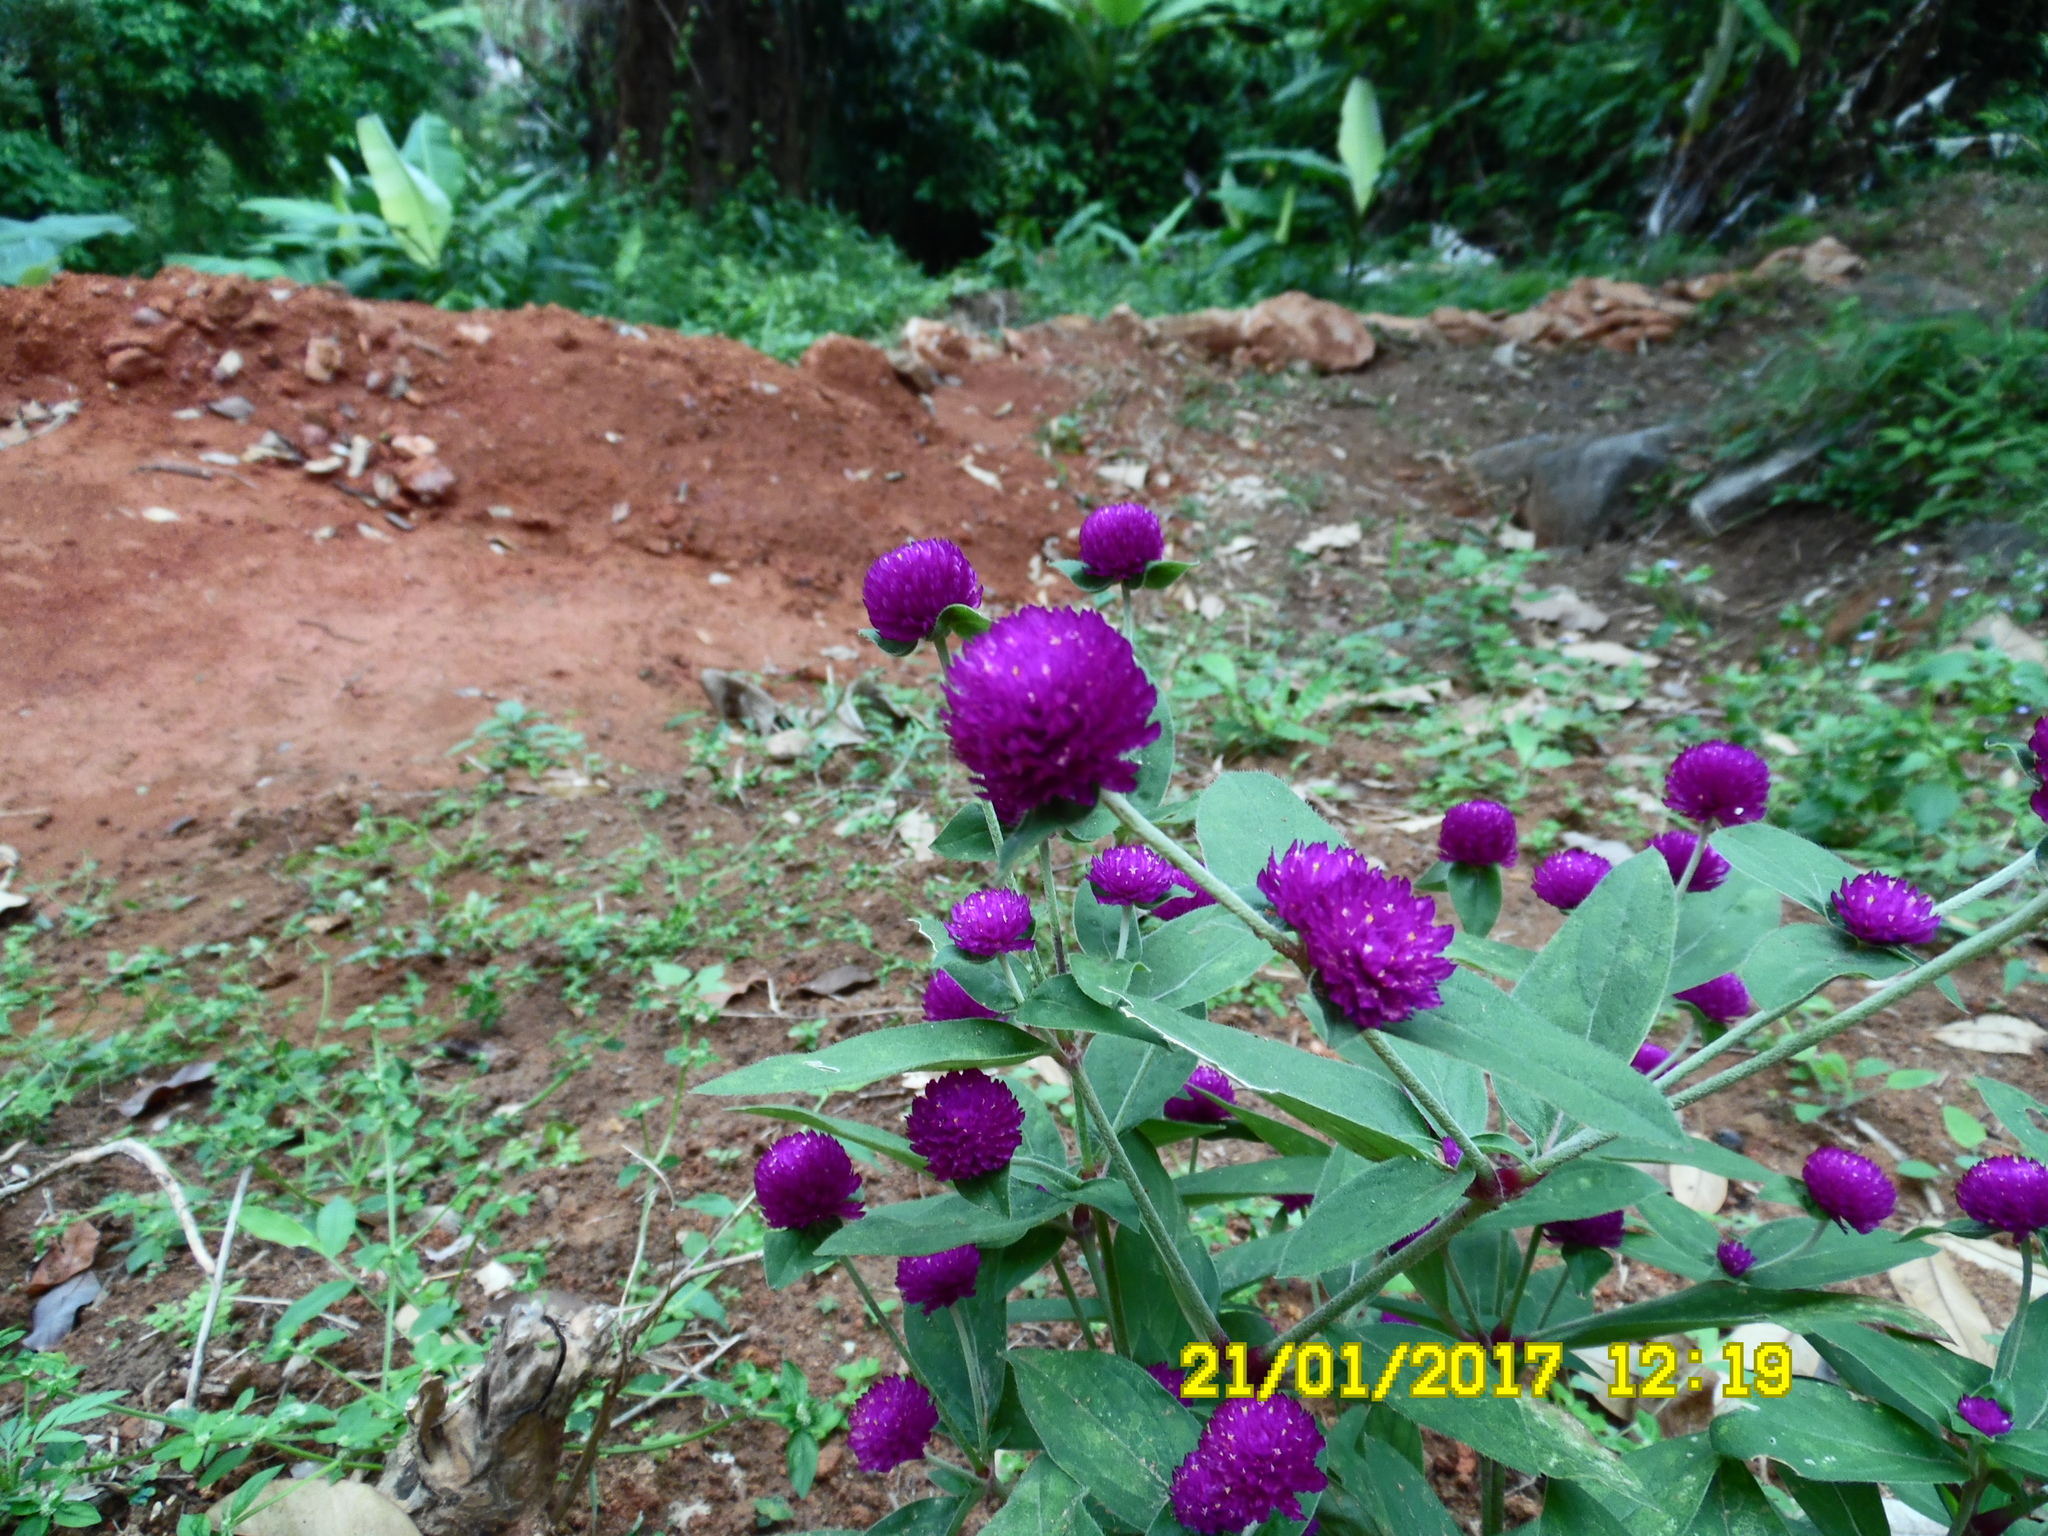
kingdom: Plantae
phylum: Tracheophyta
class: Magnoliopsida
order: Caryophyllales
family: Amaranthaceae
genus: Gomphrena
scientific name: Gomphrena globosa
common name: Common globe amaranth
